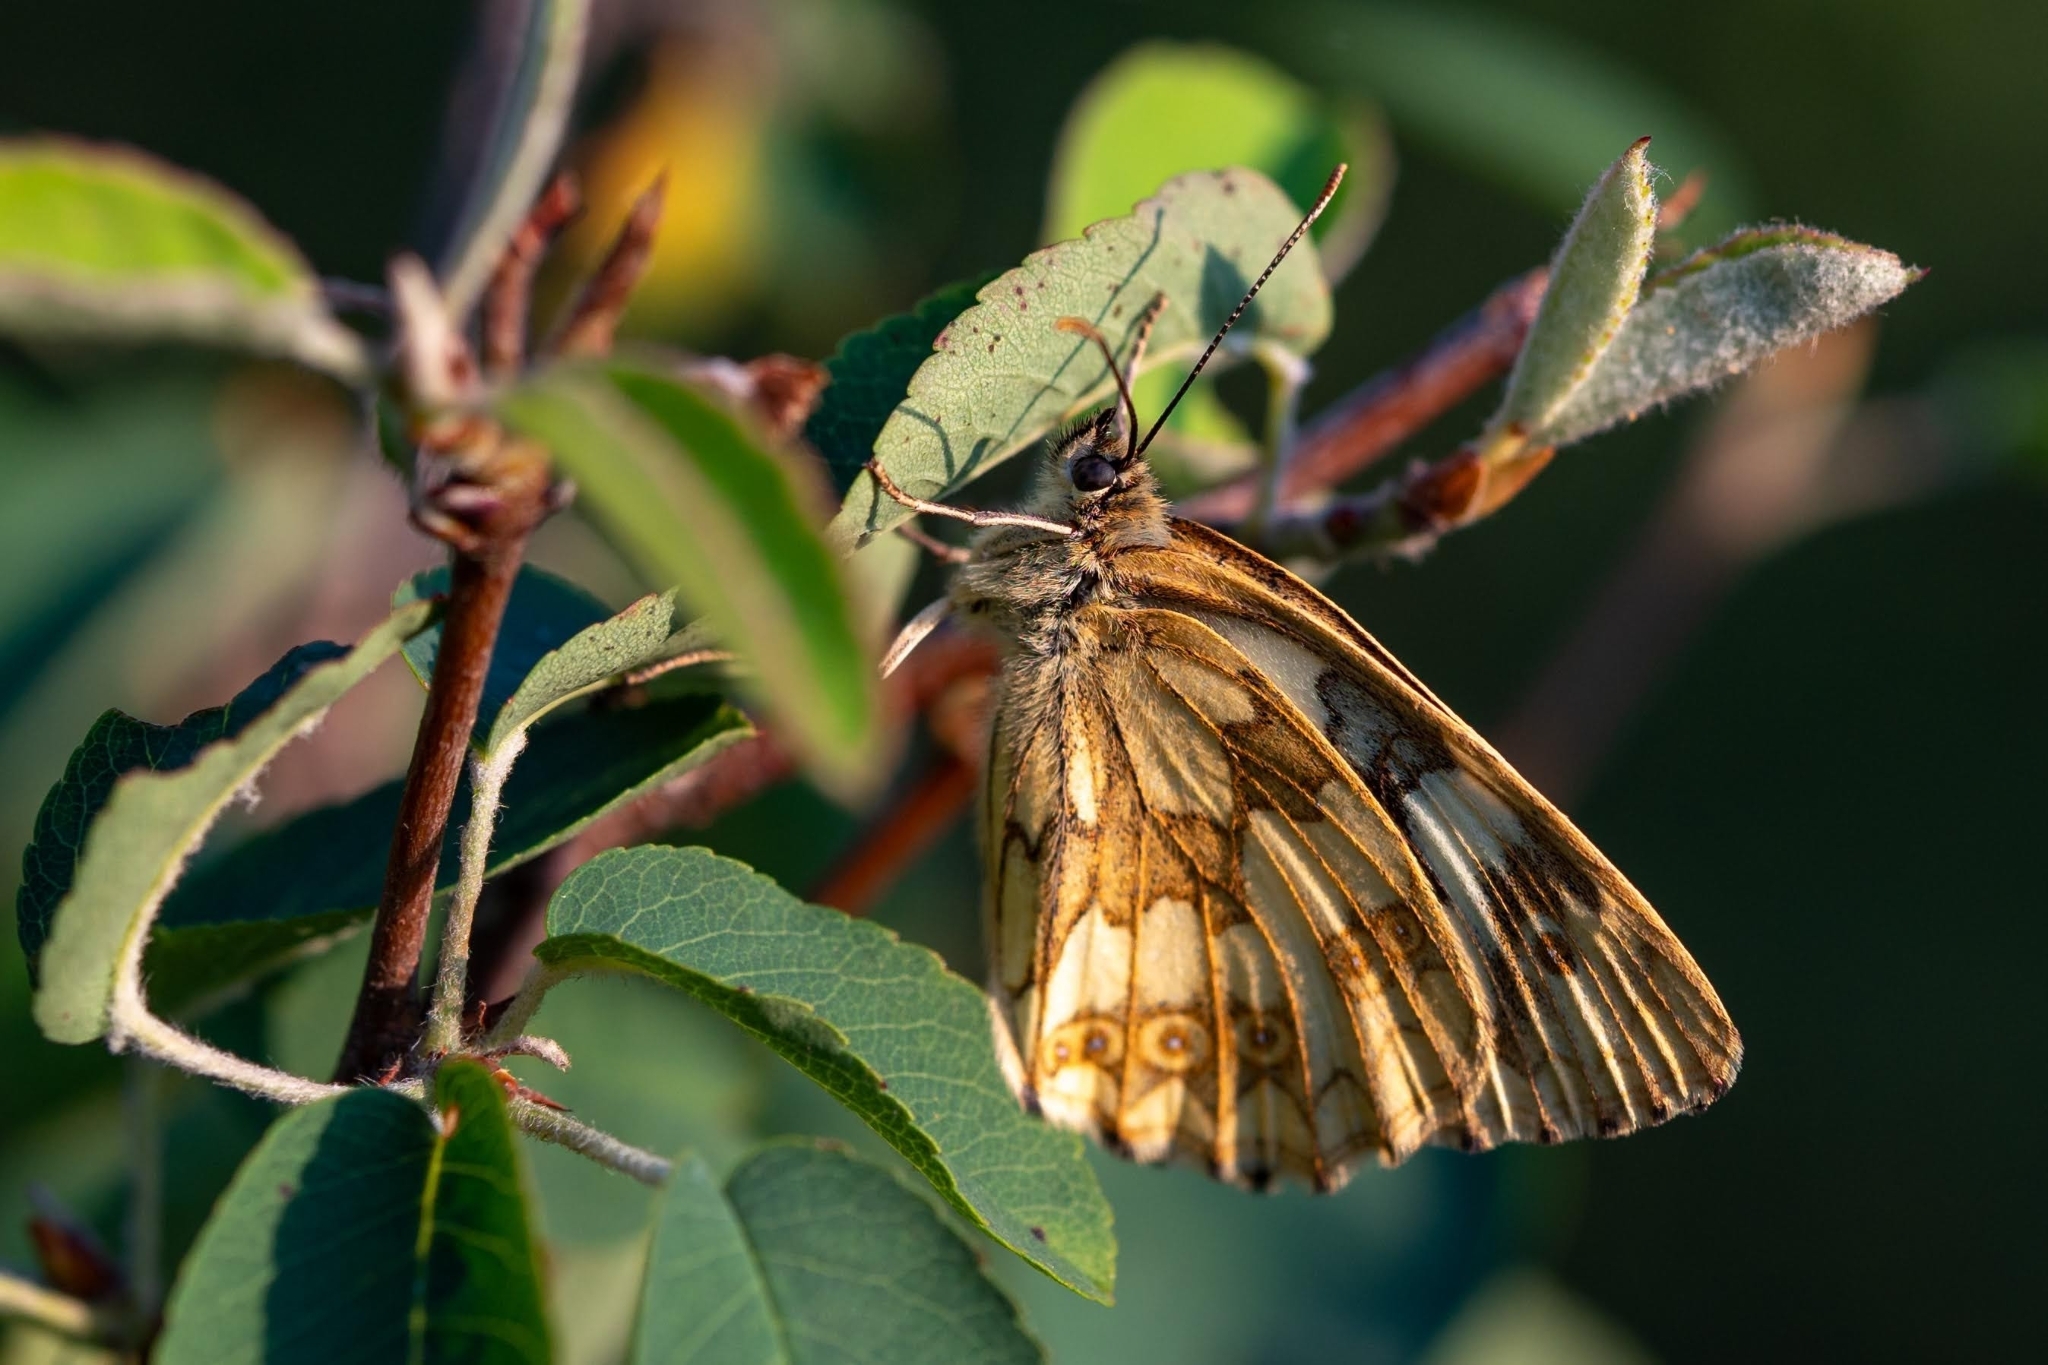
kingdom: Animalia
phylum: Arthropoda
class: Insecta
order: Lepidoptera
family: Nymphalidae
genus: Melanargia
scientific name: Melanargia galathea
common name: Marbled white
